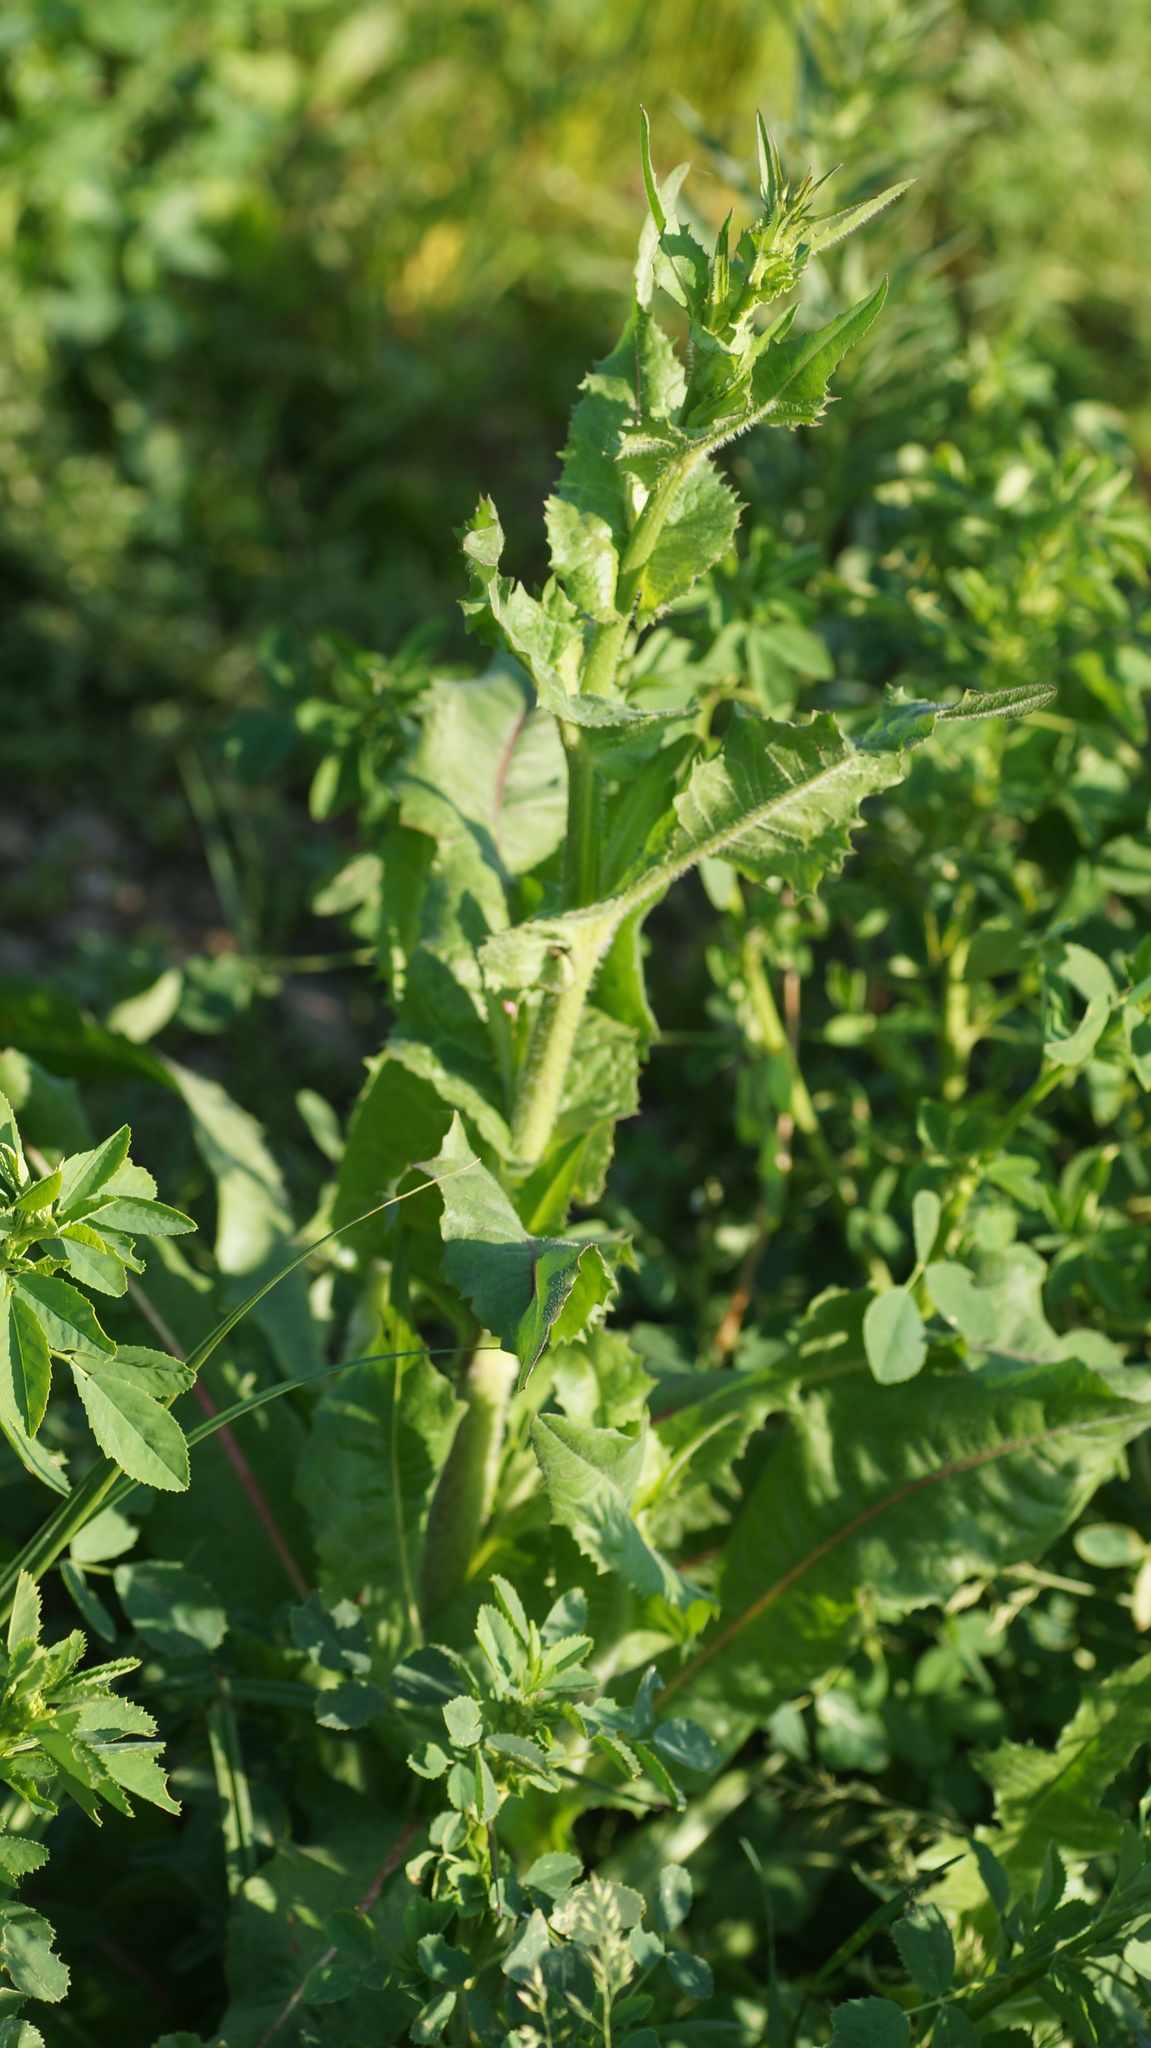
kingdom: Plantae
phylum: Tracheophyta
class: Magnoliopsida
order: Asterales
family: Asteraceae
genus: Cichorium
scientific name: Cichorium intybus
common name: Chicory
